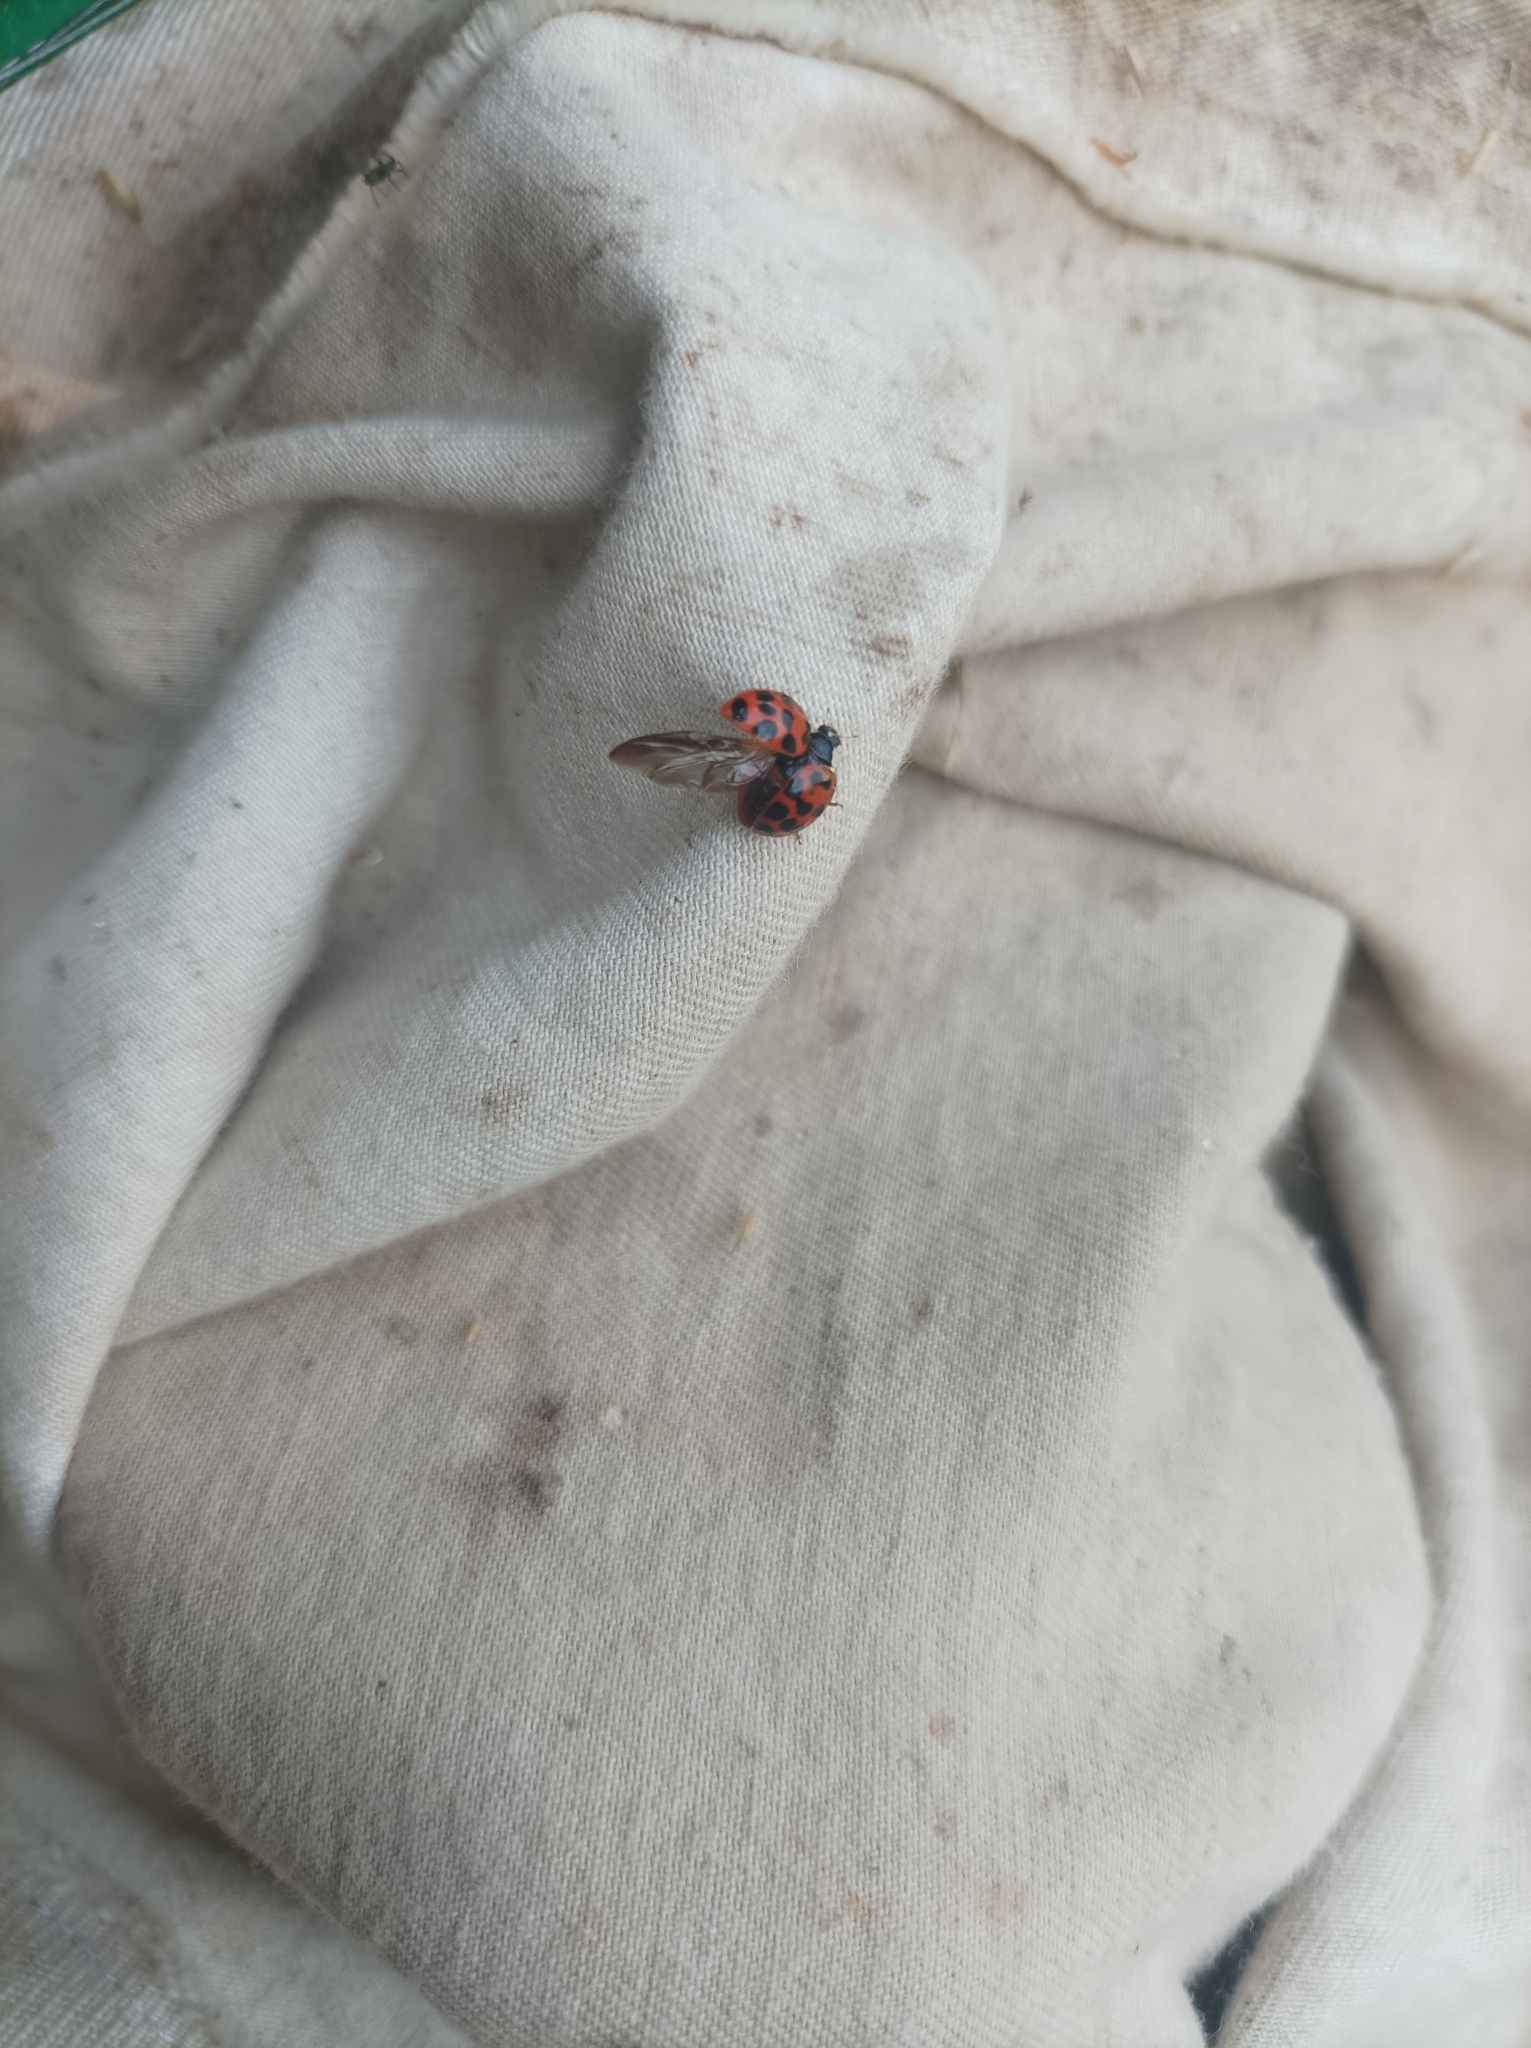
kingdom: Animalia
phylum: Arthropoda
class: Insecta
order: Coleoptera
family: Coccinellidae
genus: Harmonia
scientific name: Harmonia axyridis
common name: Harlequin ladybird
